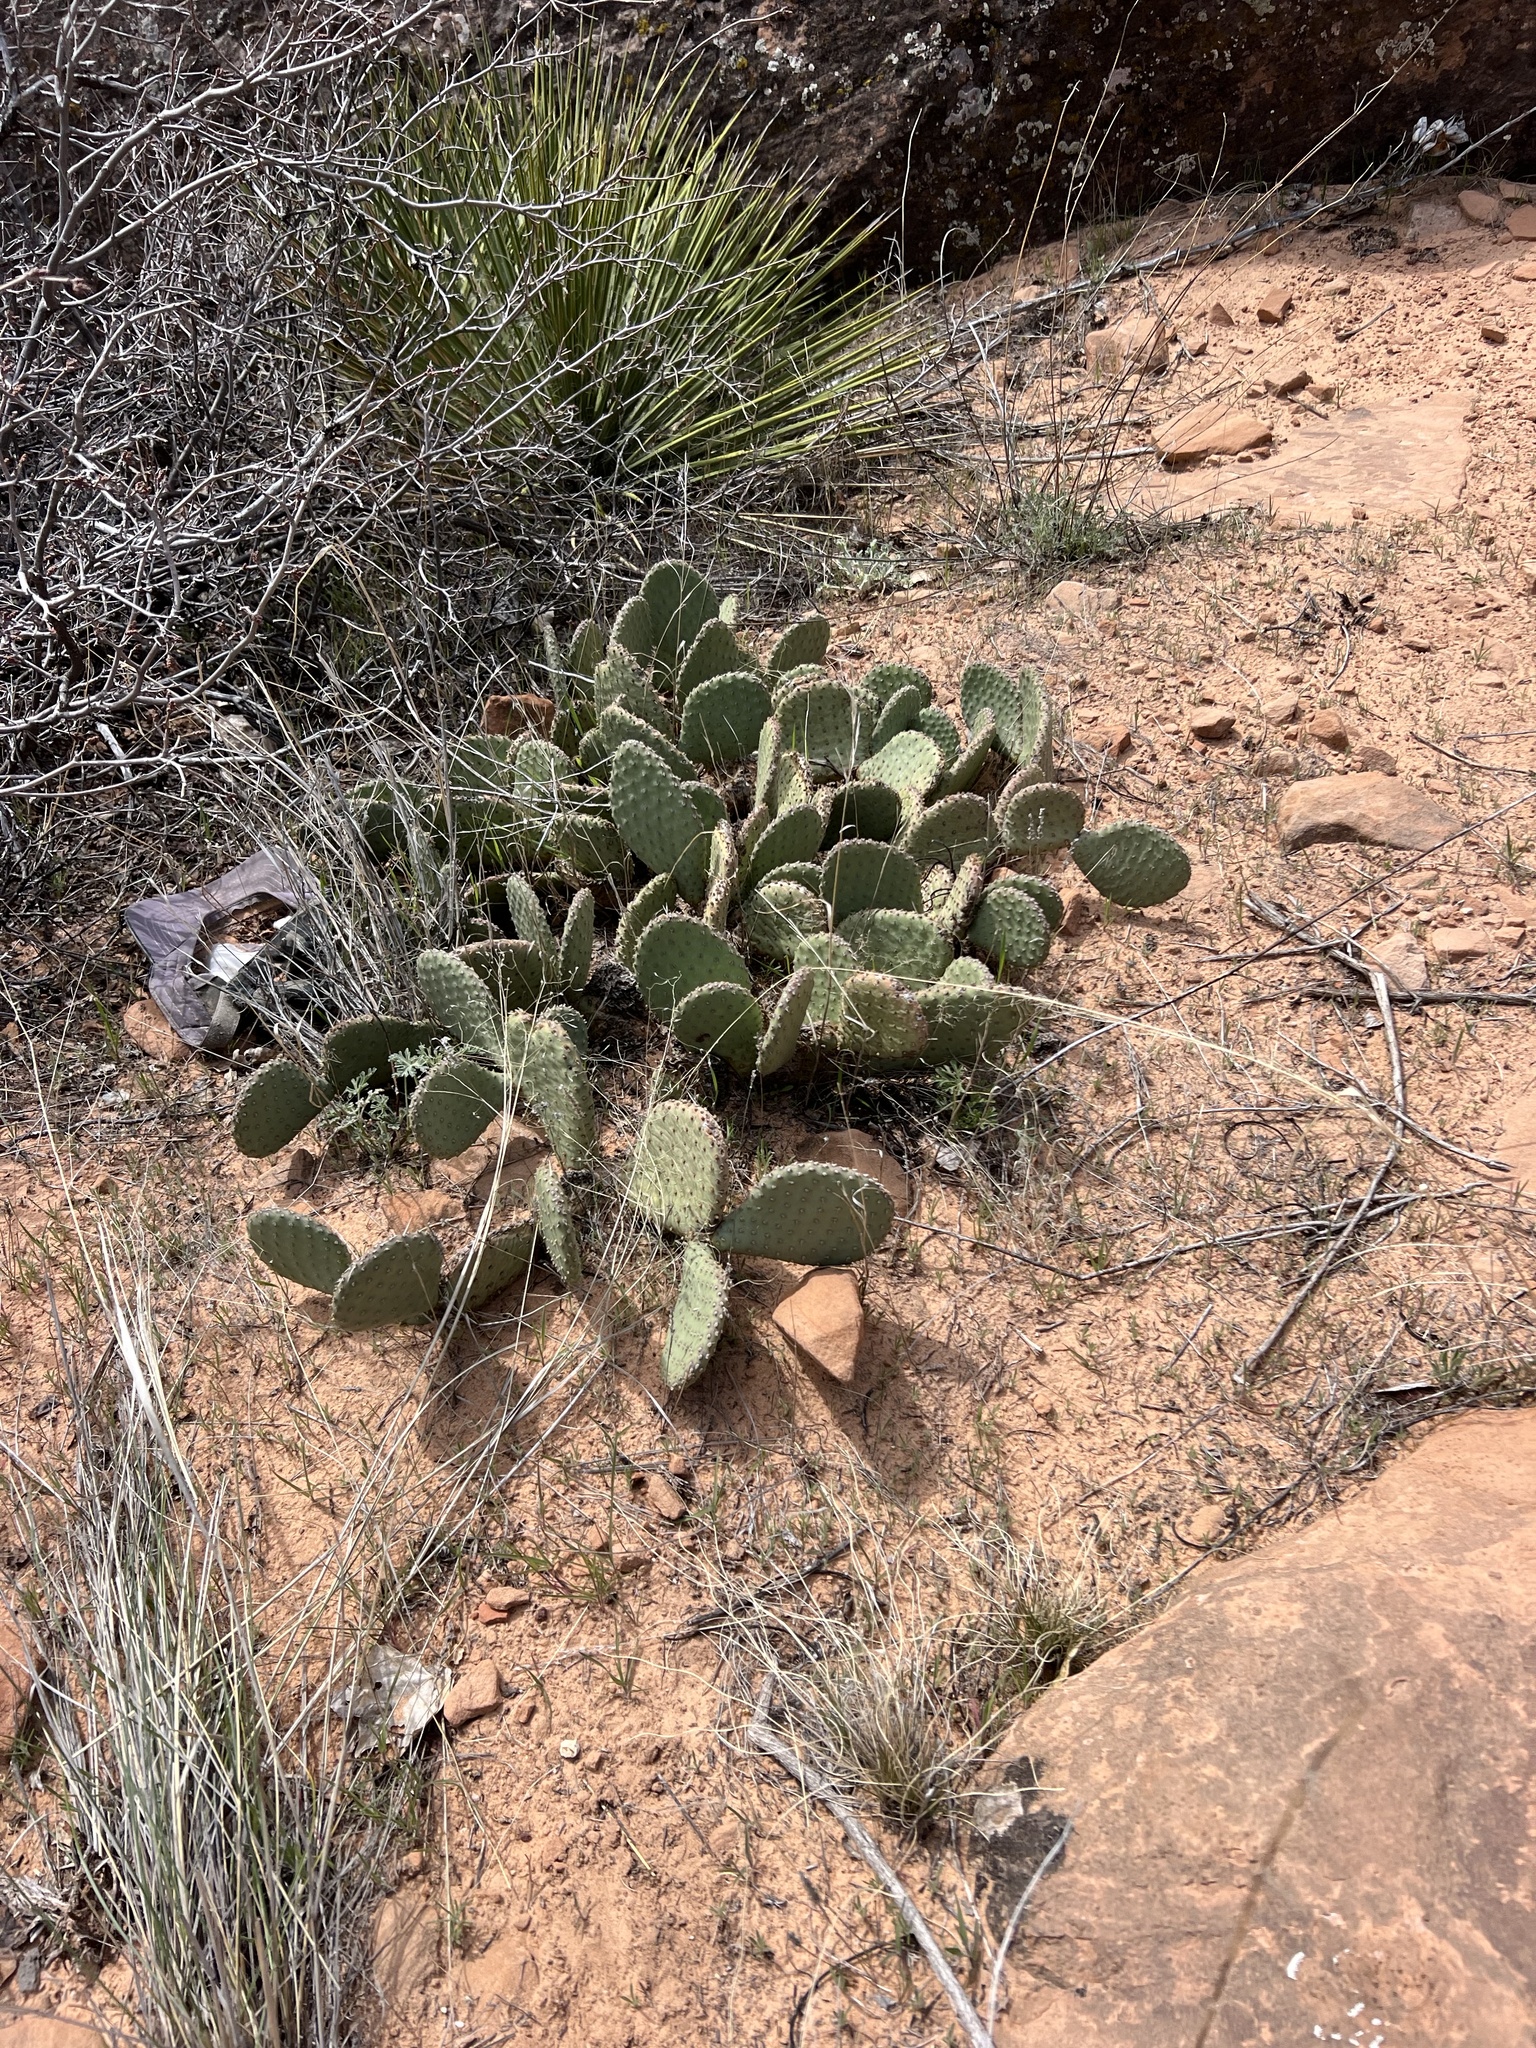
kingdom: Plantae
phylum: Tracheophyta
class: Magnoliopsida
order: Caryophyllales
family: Cactaceae
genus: Opuntia
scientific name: Opuntia aurea
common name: Golden prickly-pear
